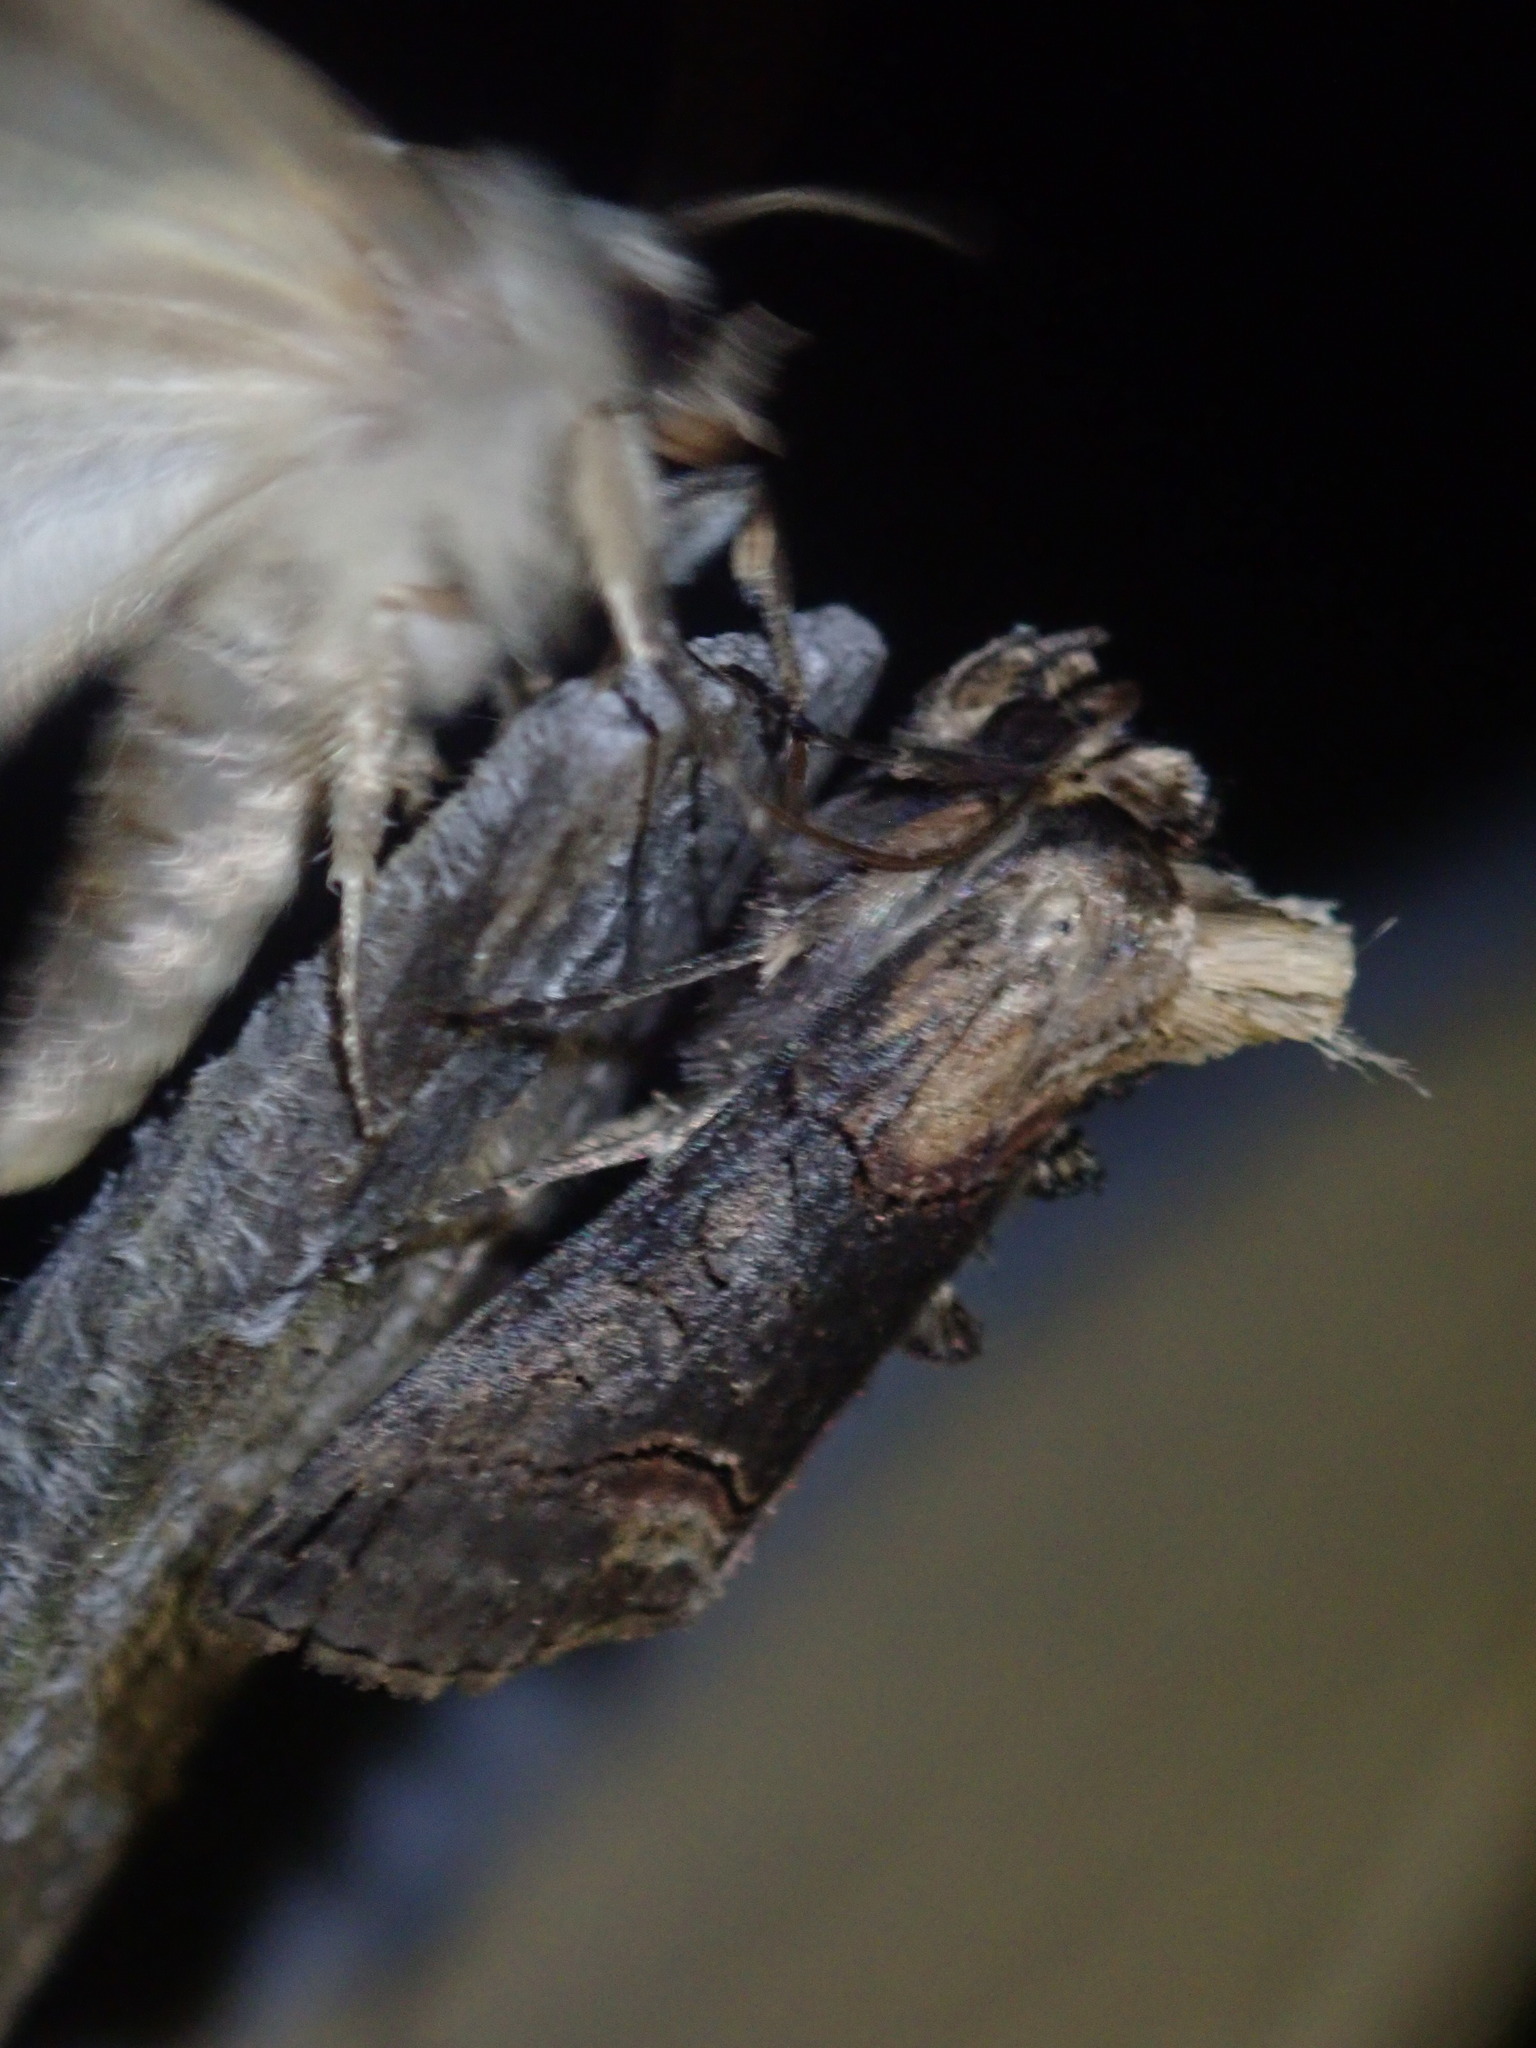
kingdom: Animalia
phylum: Arthropoda
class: Insecta
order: Lepidoptera
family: Noctuidae
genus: Abrostola
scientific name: Abrostola triplasia
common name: Dark spectacle
